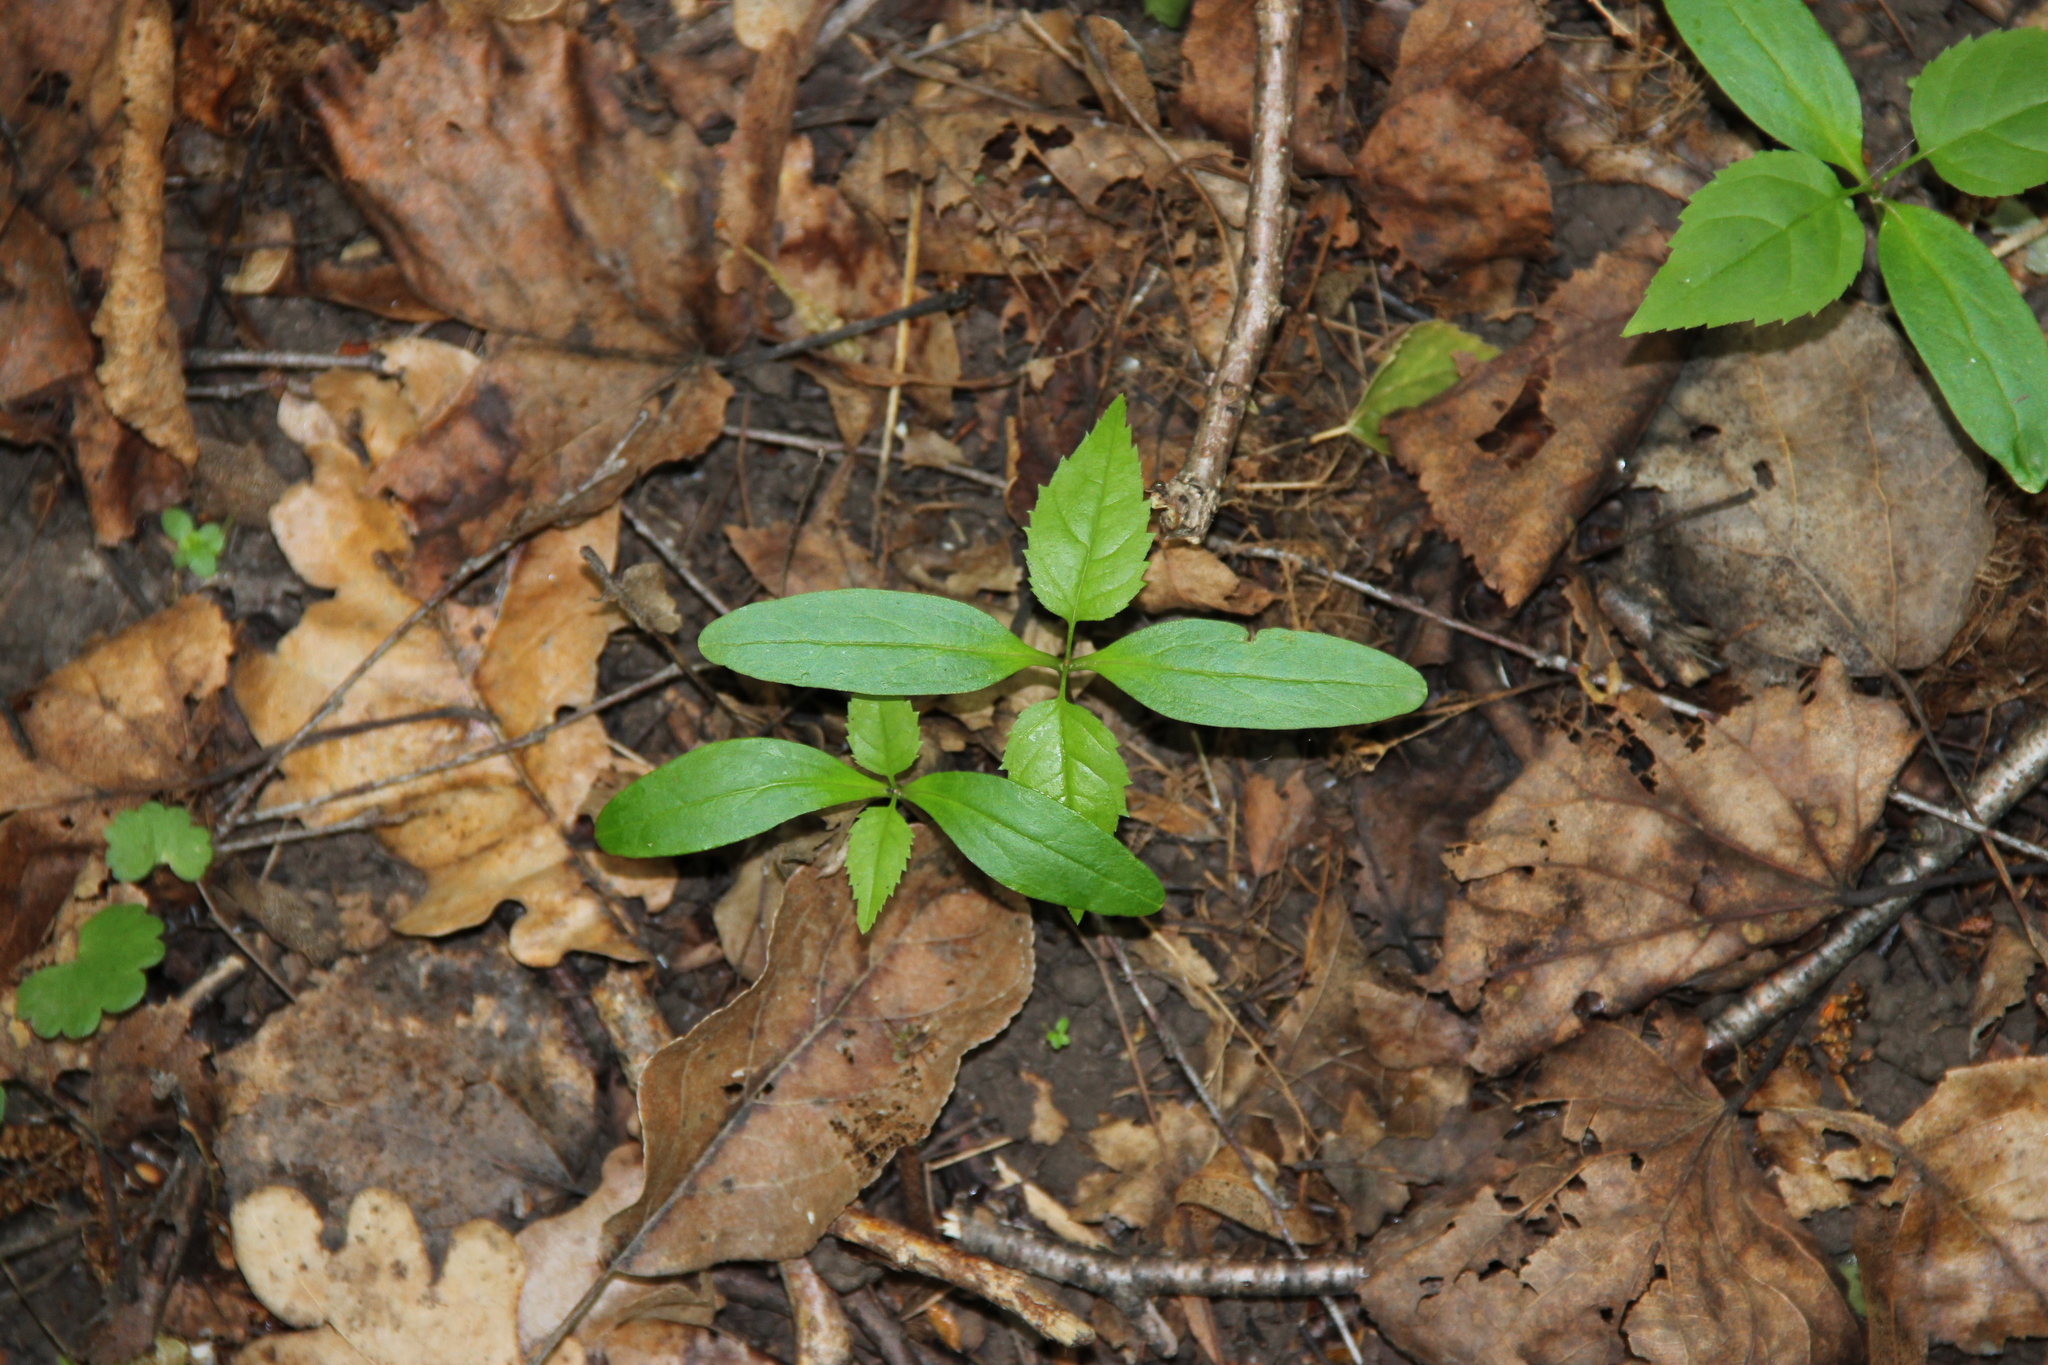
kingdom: Plantae
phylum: Tracheophyta
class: Magnoliopsida
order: Lamiales
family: Oleaceae
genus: Fraxinus
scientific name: Fraxinus excelsior
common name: European ash
